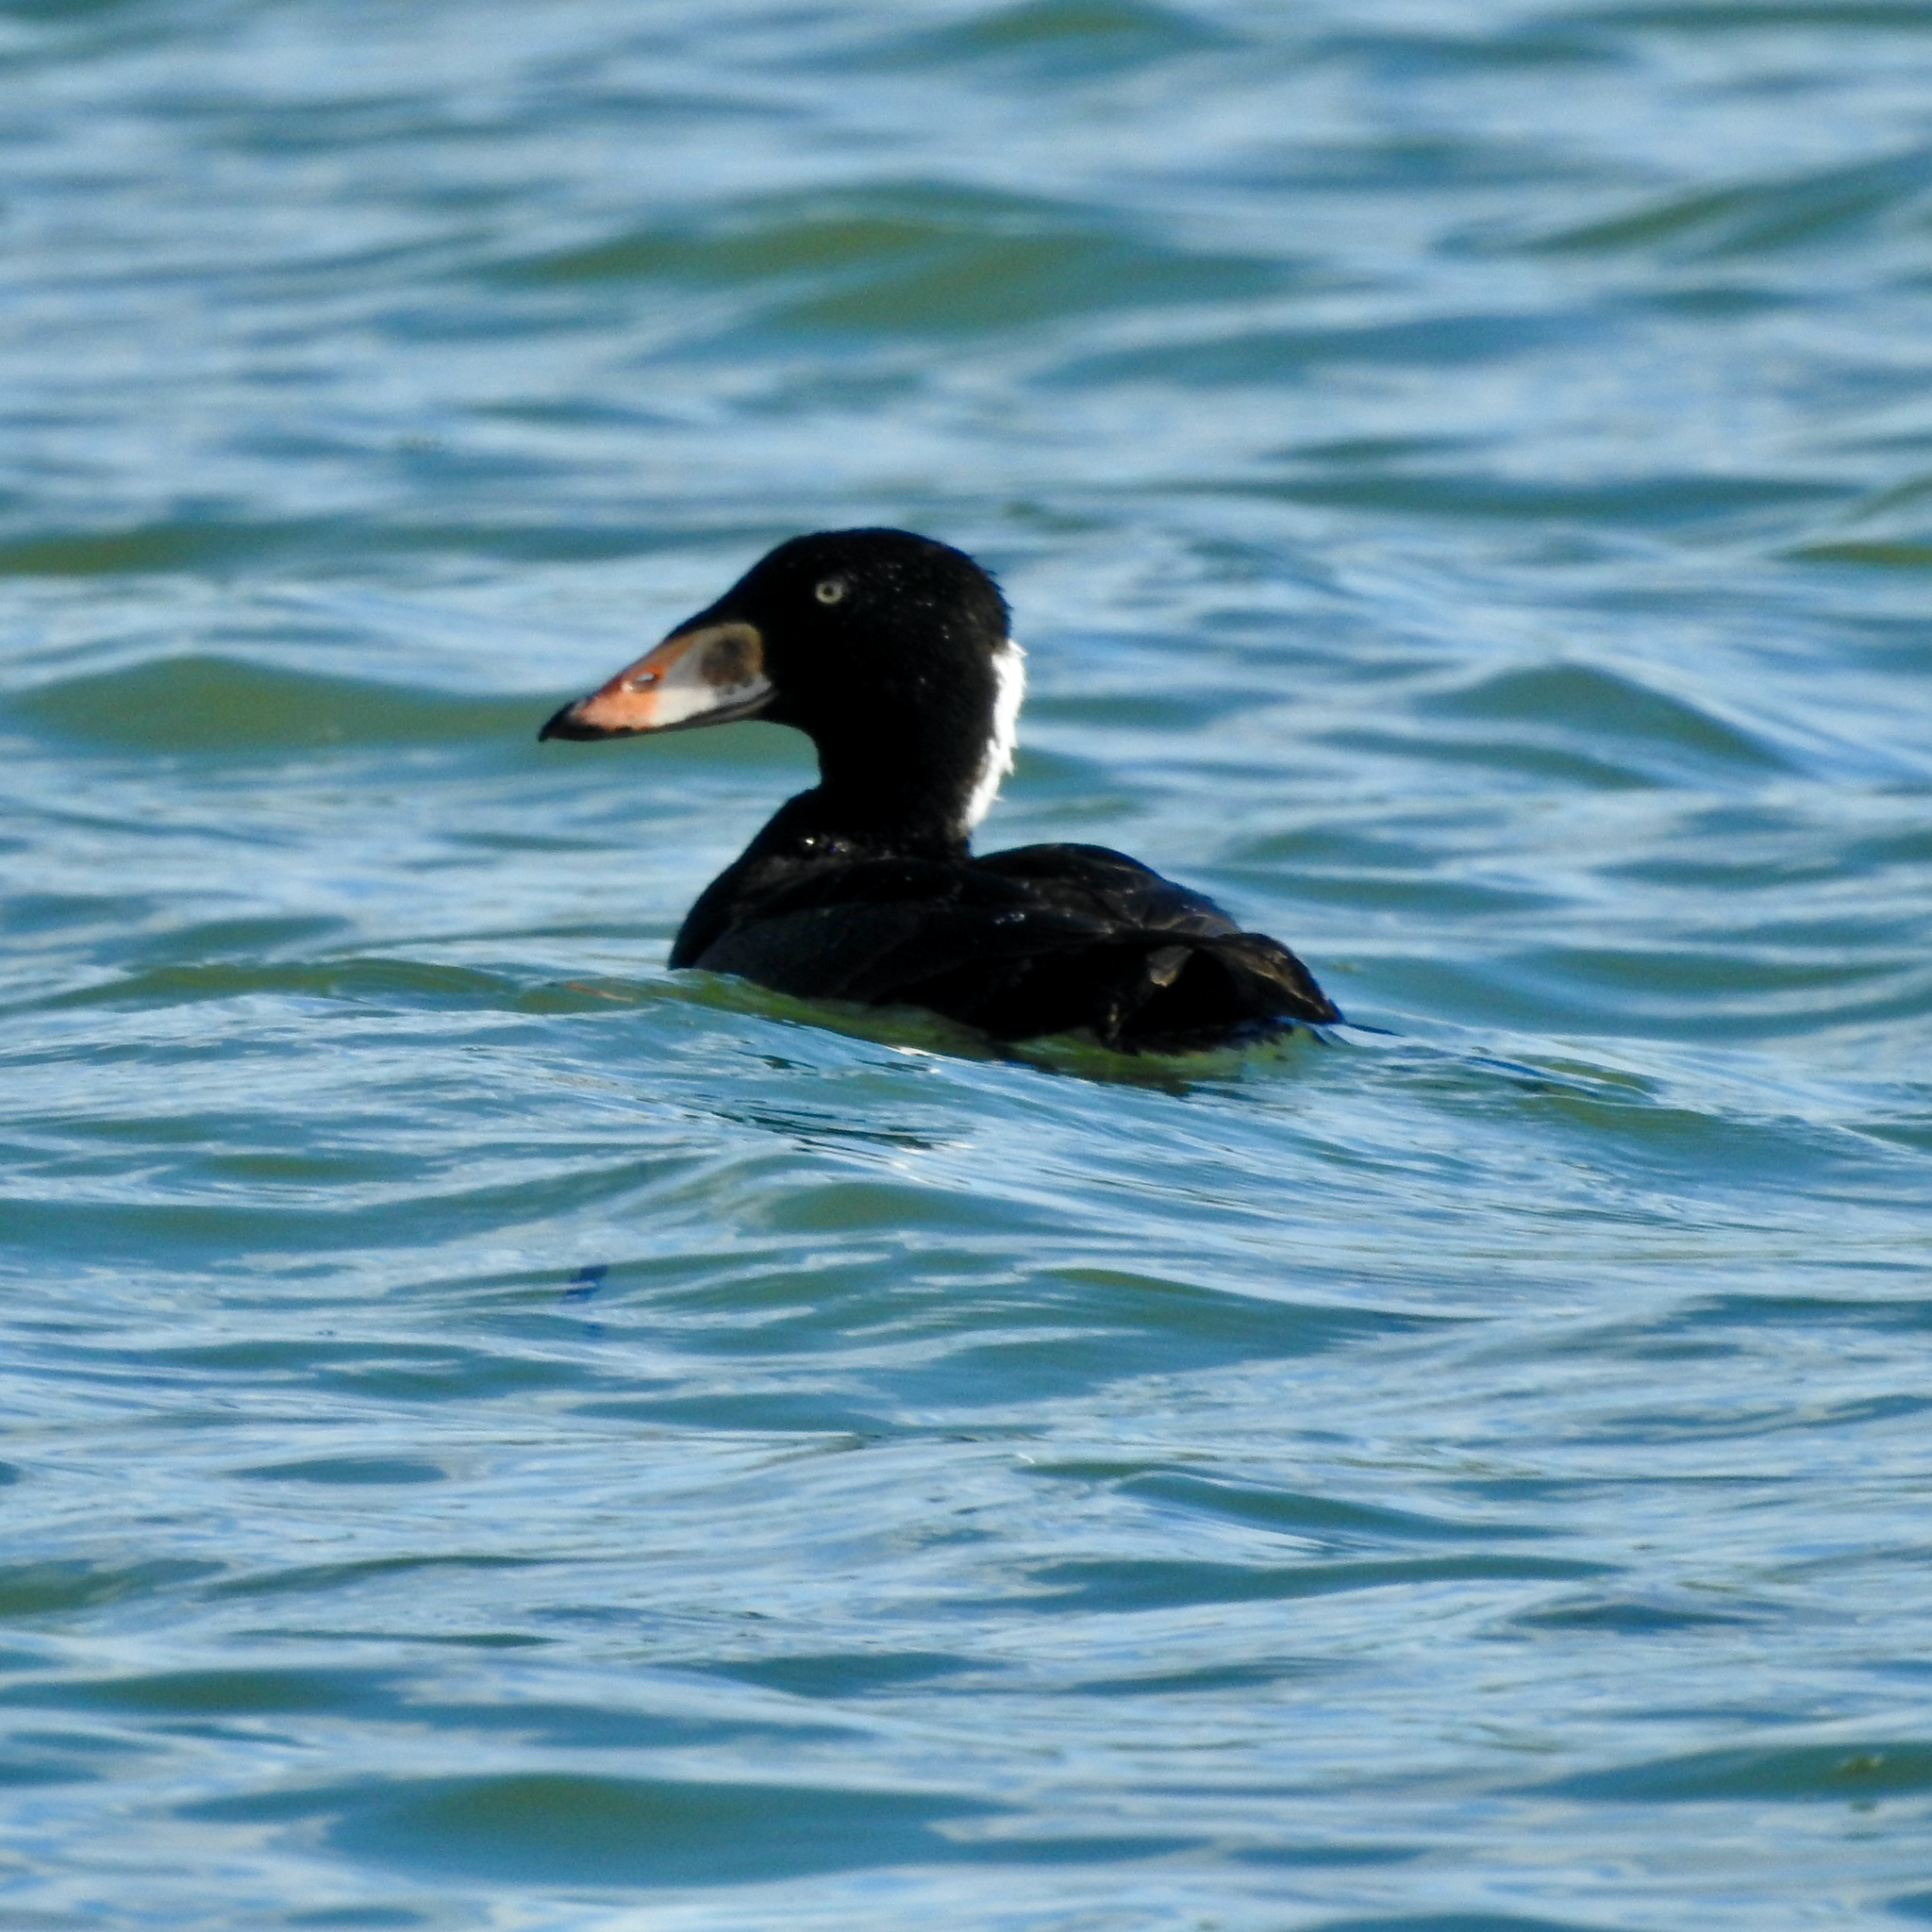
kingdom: Animalia
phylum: Chordata
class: Aves
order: Anseriformes
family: Anatidae
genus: Melanitta
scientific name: Melanitta perspicillata
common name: Surf scoter
